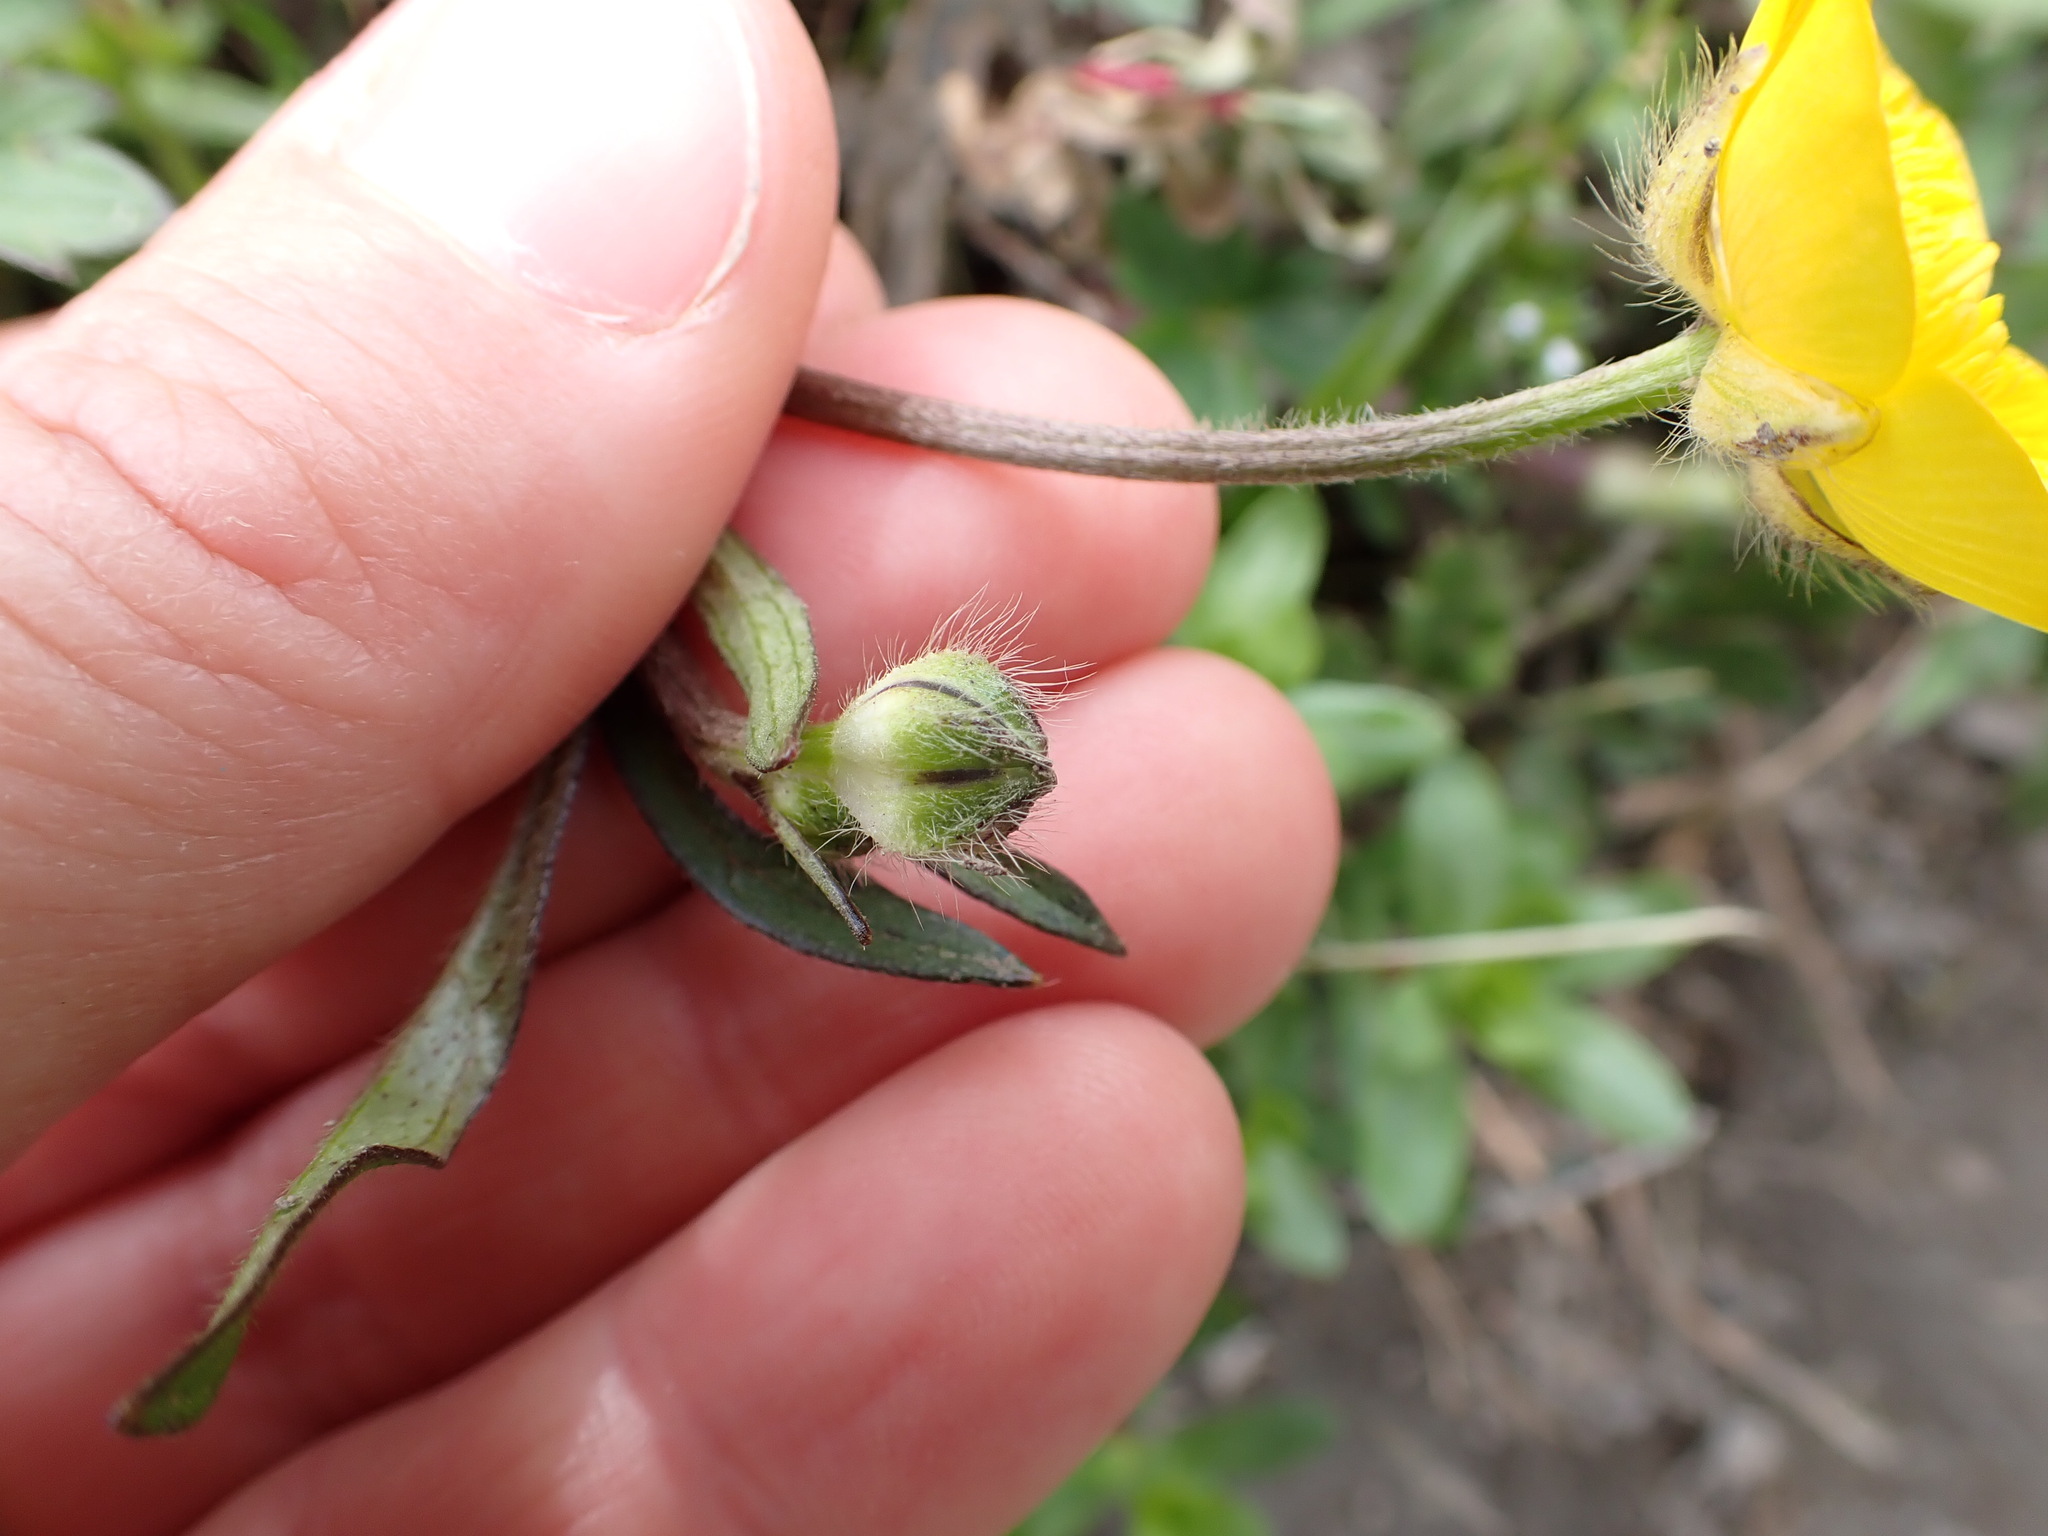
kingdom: Plantae
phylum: Tracheophyta
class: Magnoliopsida
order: Ranunculales
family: Ranunculaceae
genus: Ranunculus
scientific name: Ranunculus repens
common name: Creeping buttercup
